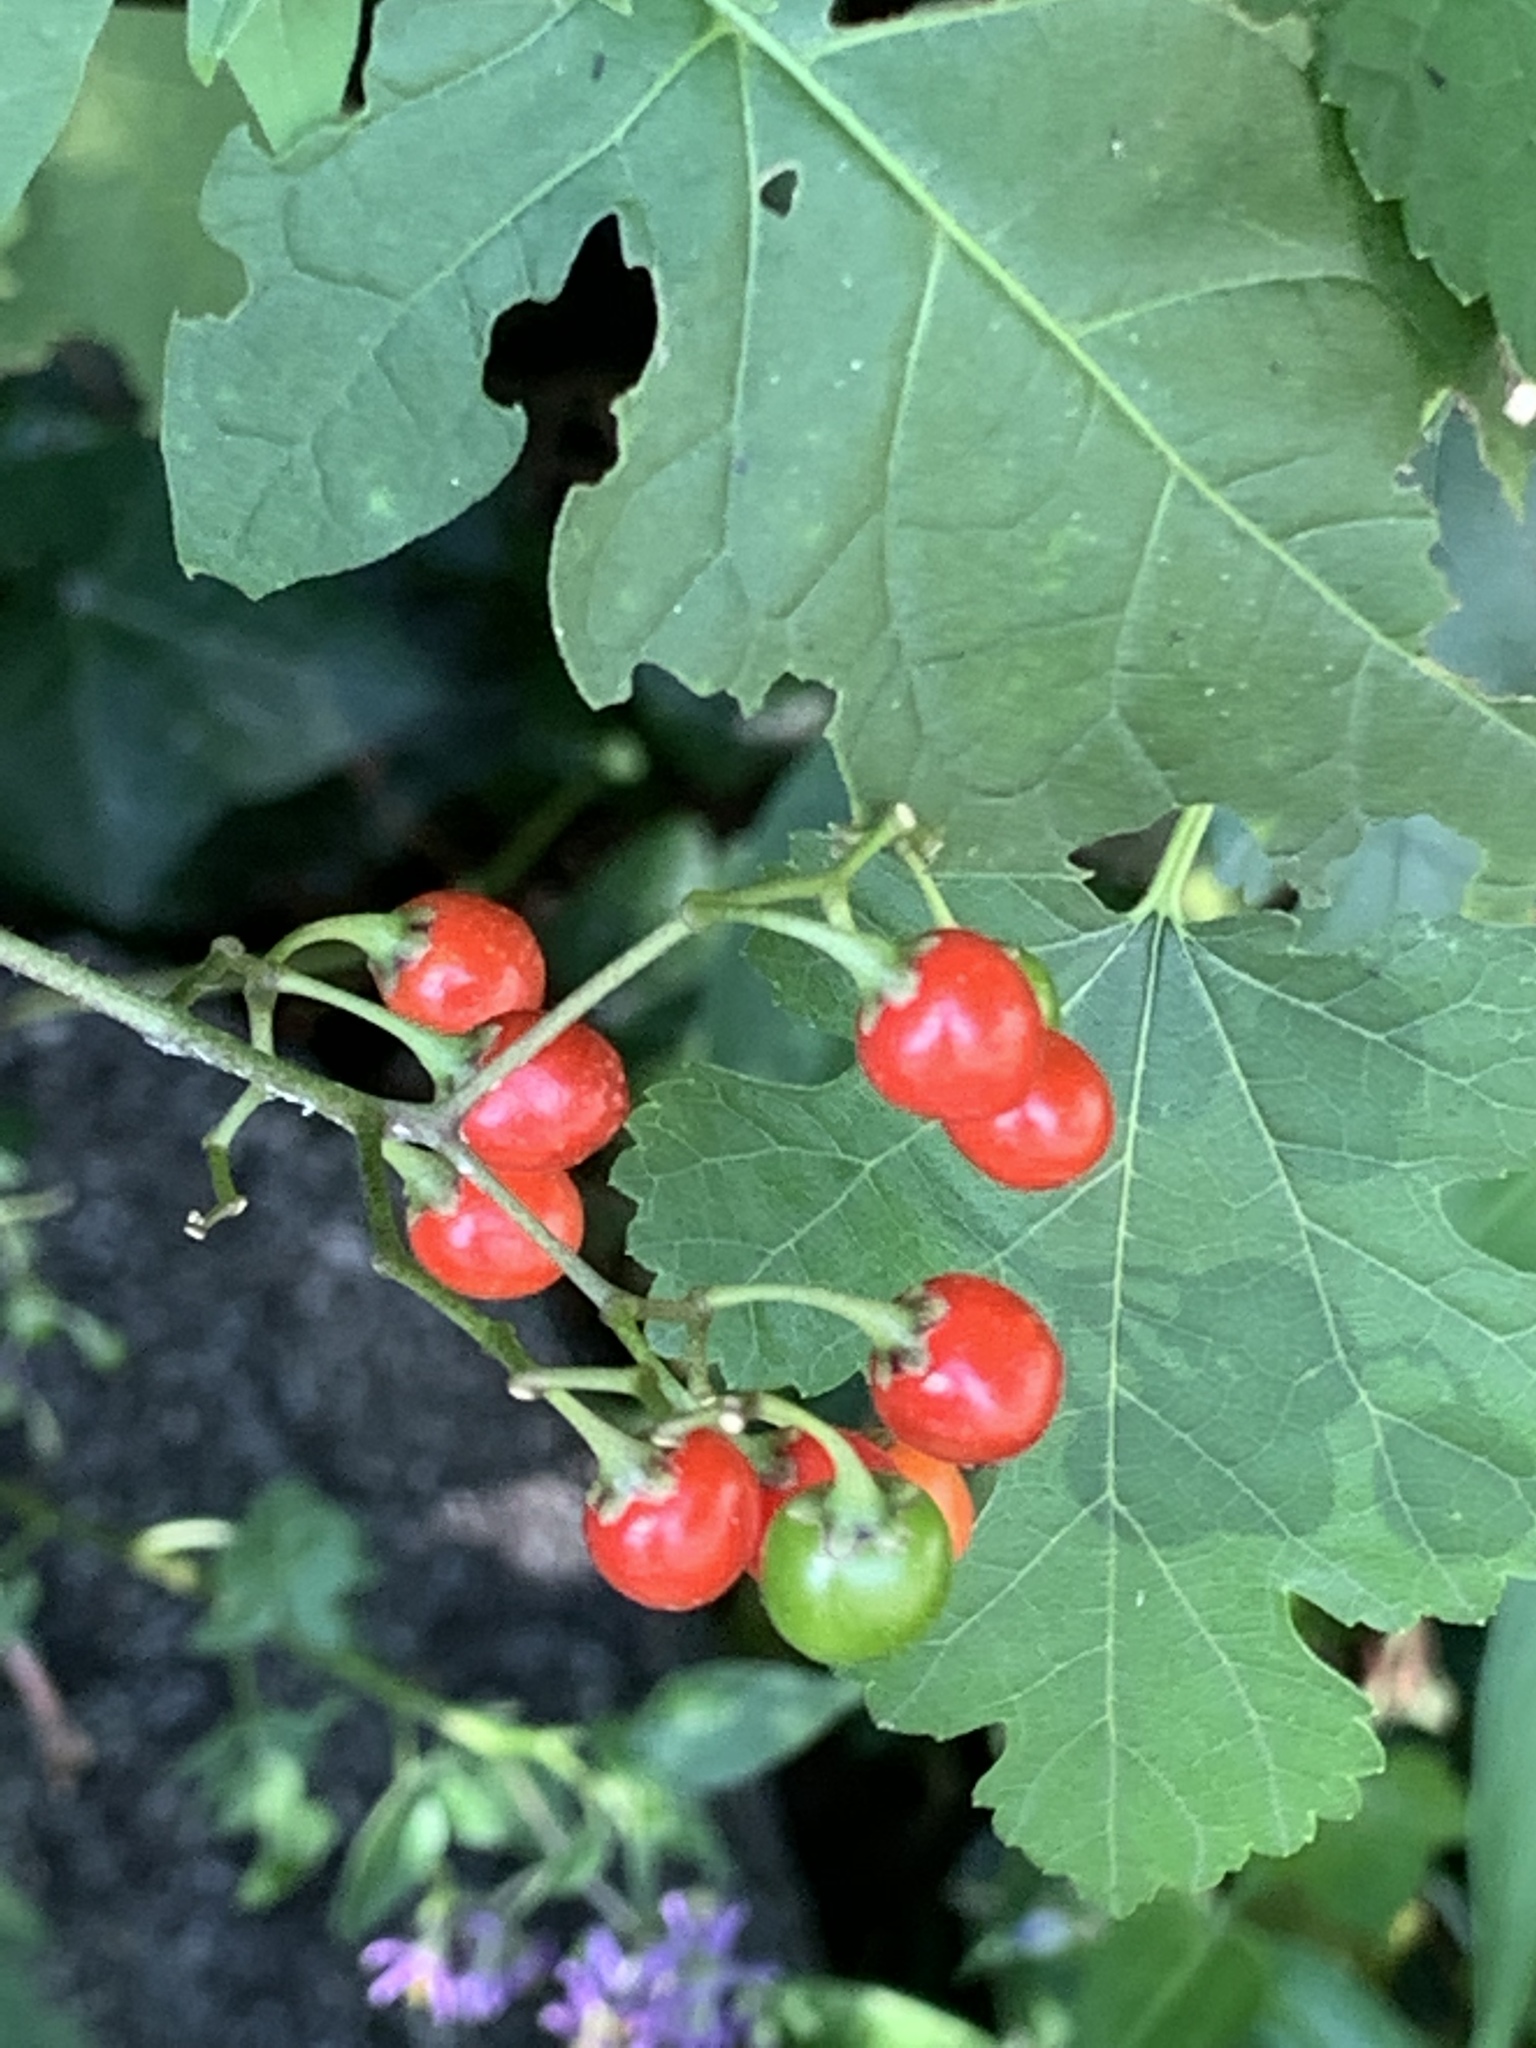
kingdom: Plantae
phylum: Tracheophyta
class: Magnoliopsida
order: Solanales
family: Solanaceae
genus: Solanum
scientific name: Solanum dulcamara
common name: Climbing nightshade
